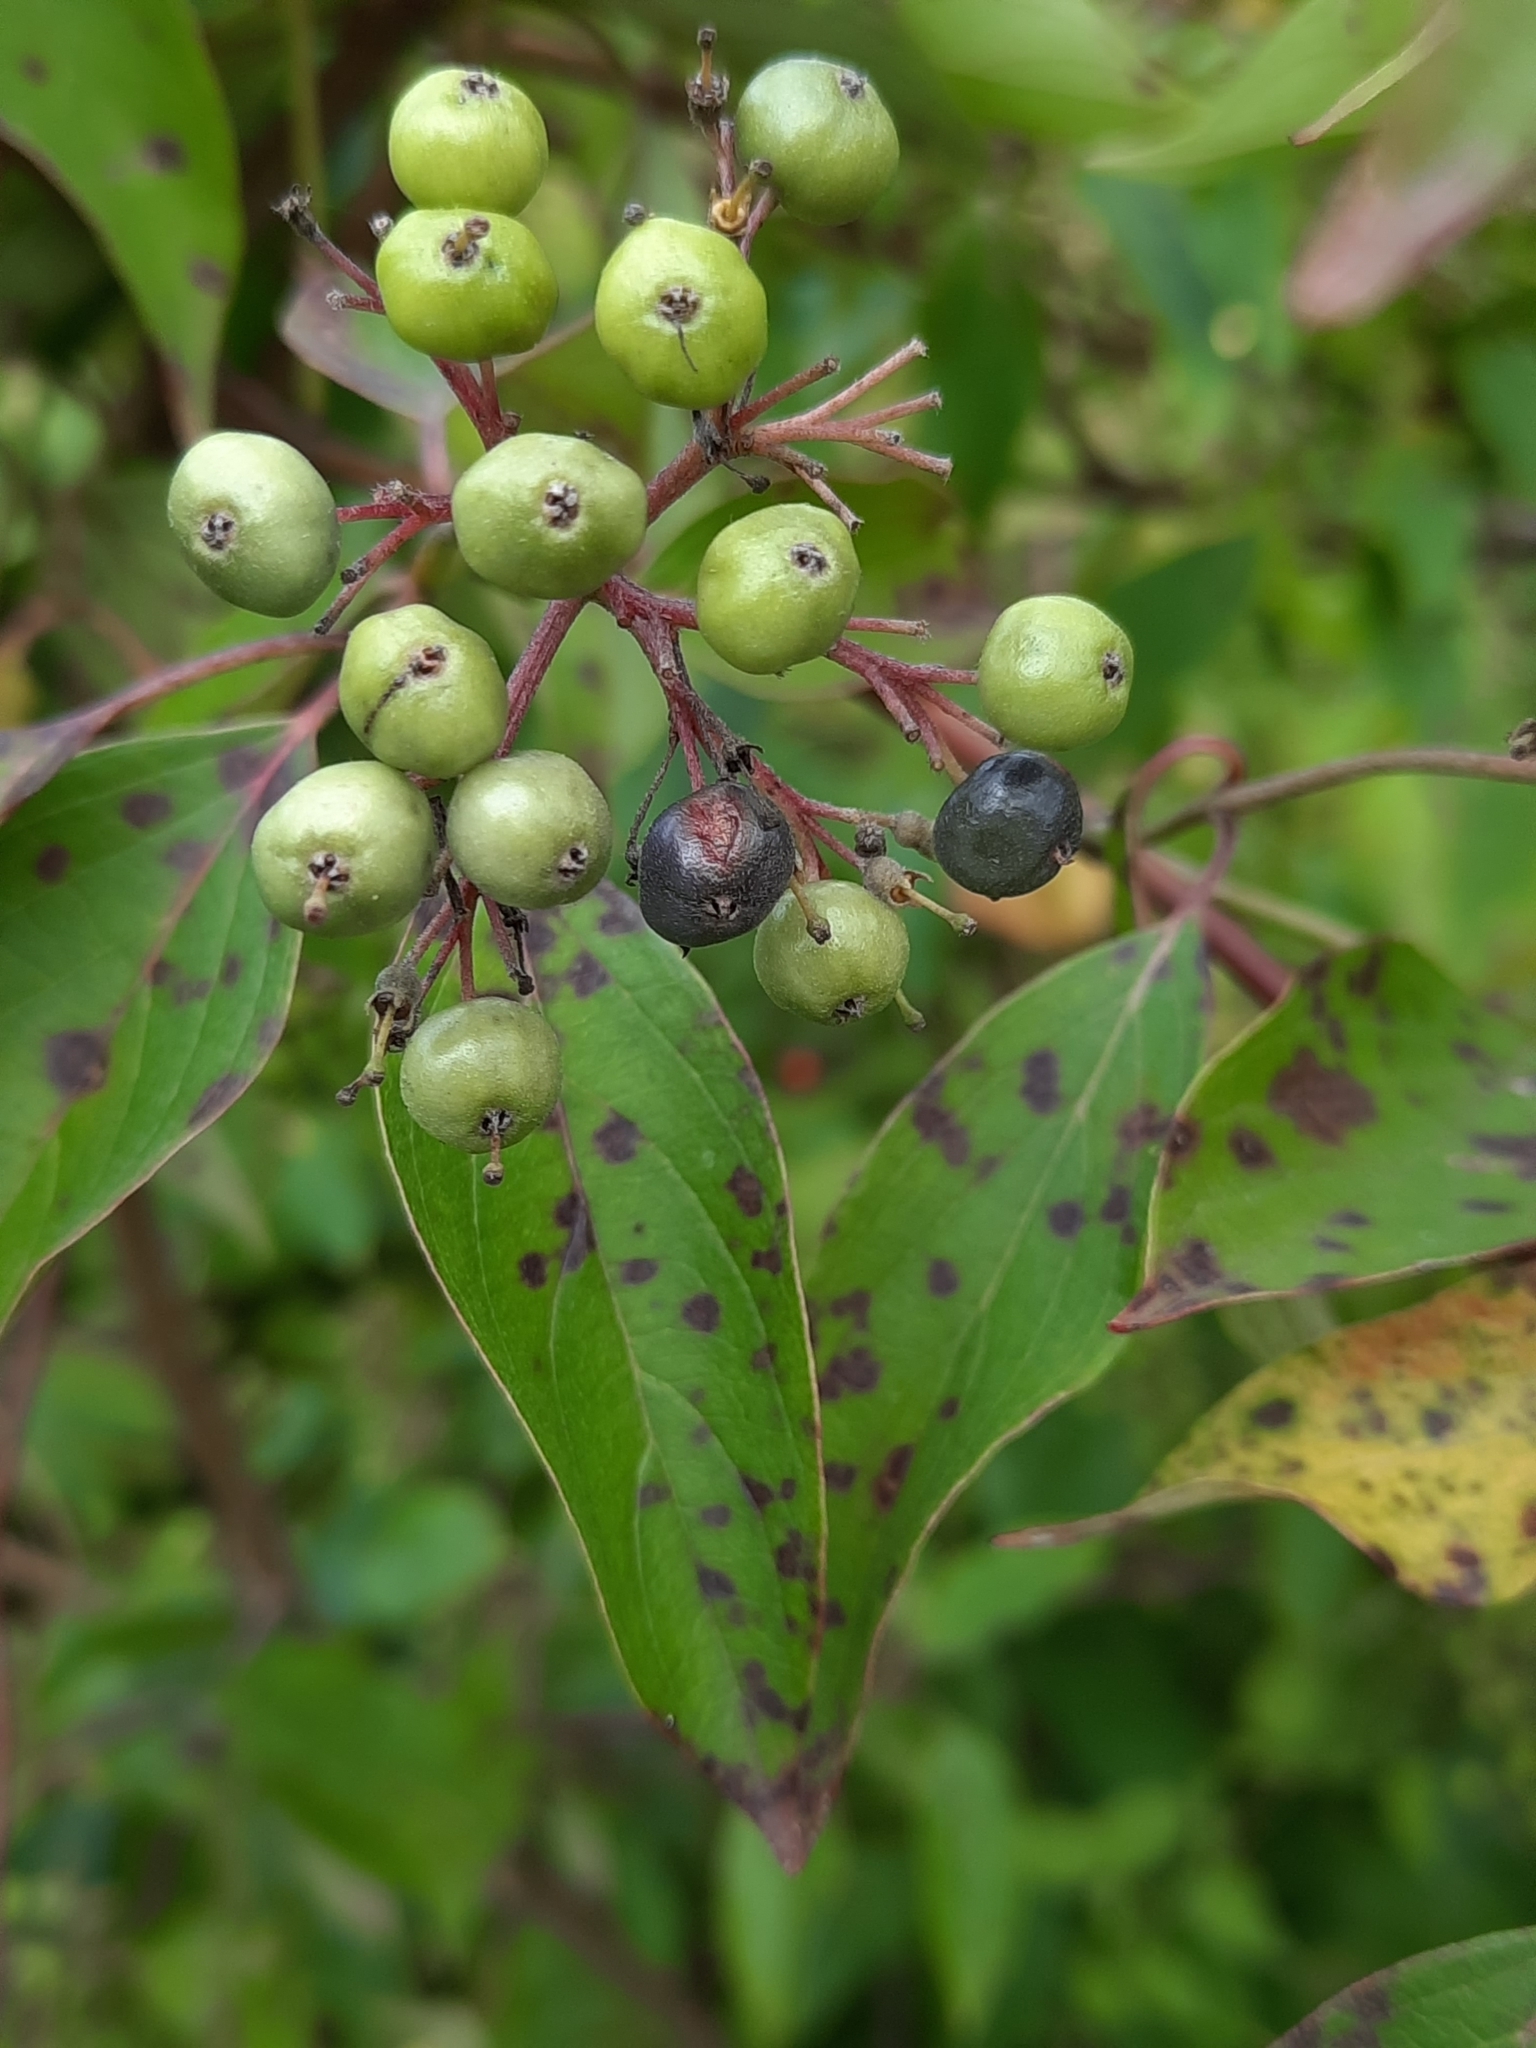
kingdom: Plantae
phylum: Tracheophyta
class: Magnoliopsida
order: Cornales
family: Cornaceae
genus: Cornus
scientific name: Cornus amomum
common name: Silky dogwood
